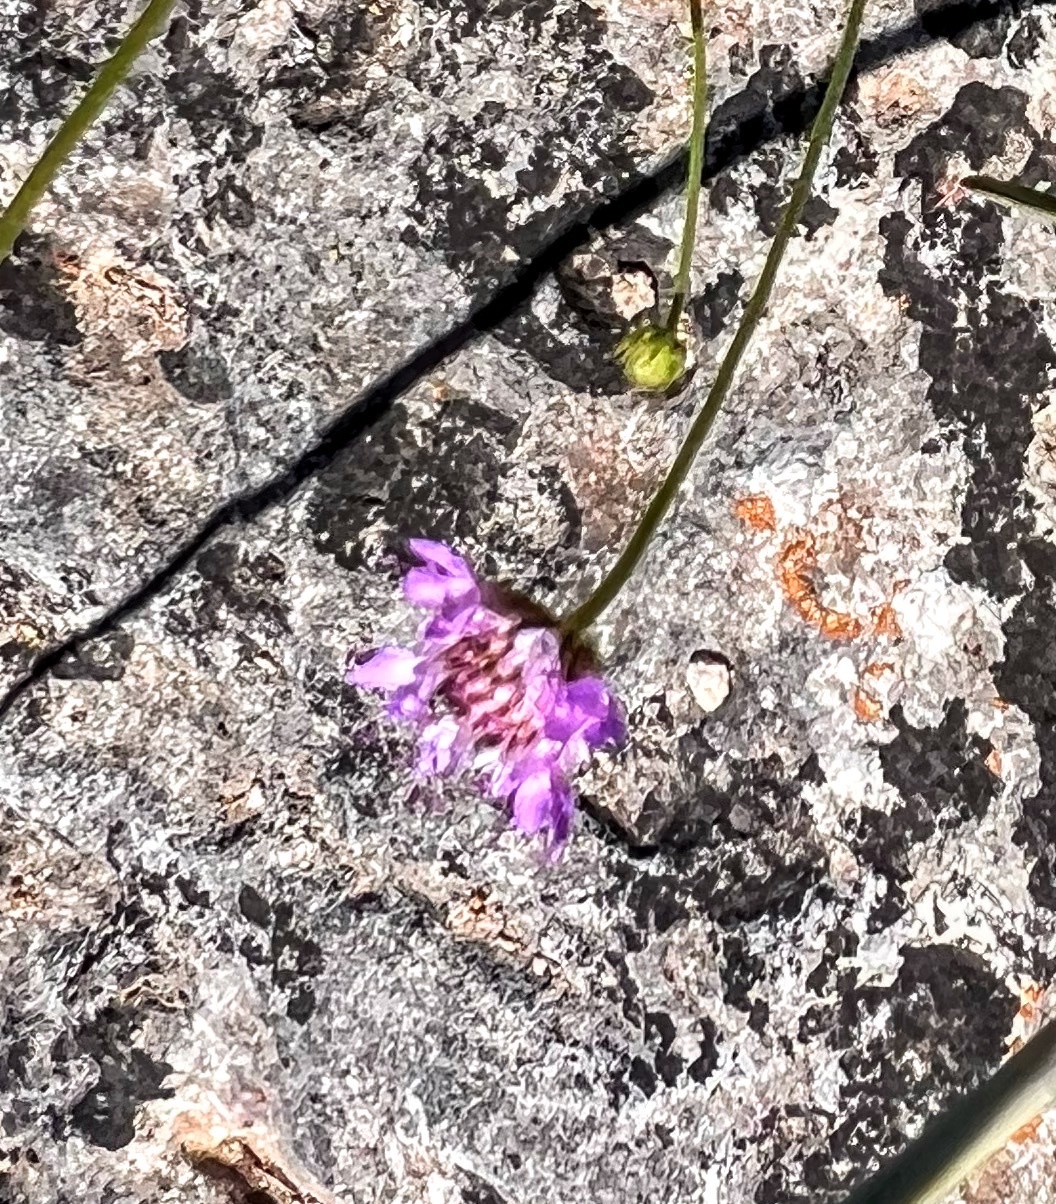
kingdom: Plantae
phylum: Tracheophyta
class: Magnoliopsida
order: Dipsacales
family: Caprifoliaceae
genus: Sixalix
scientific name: Sixalix atropurpurea
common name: Sweet scabious
